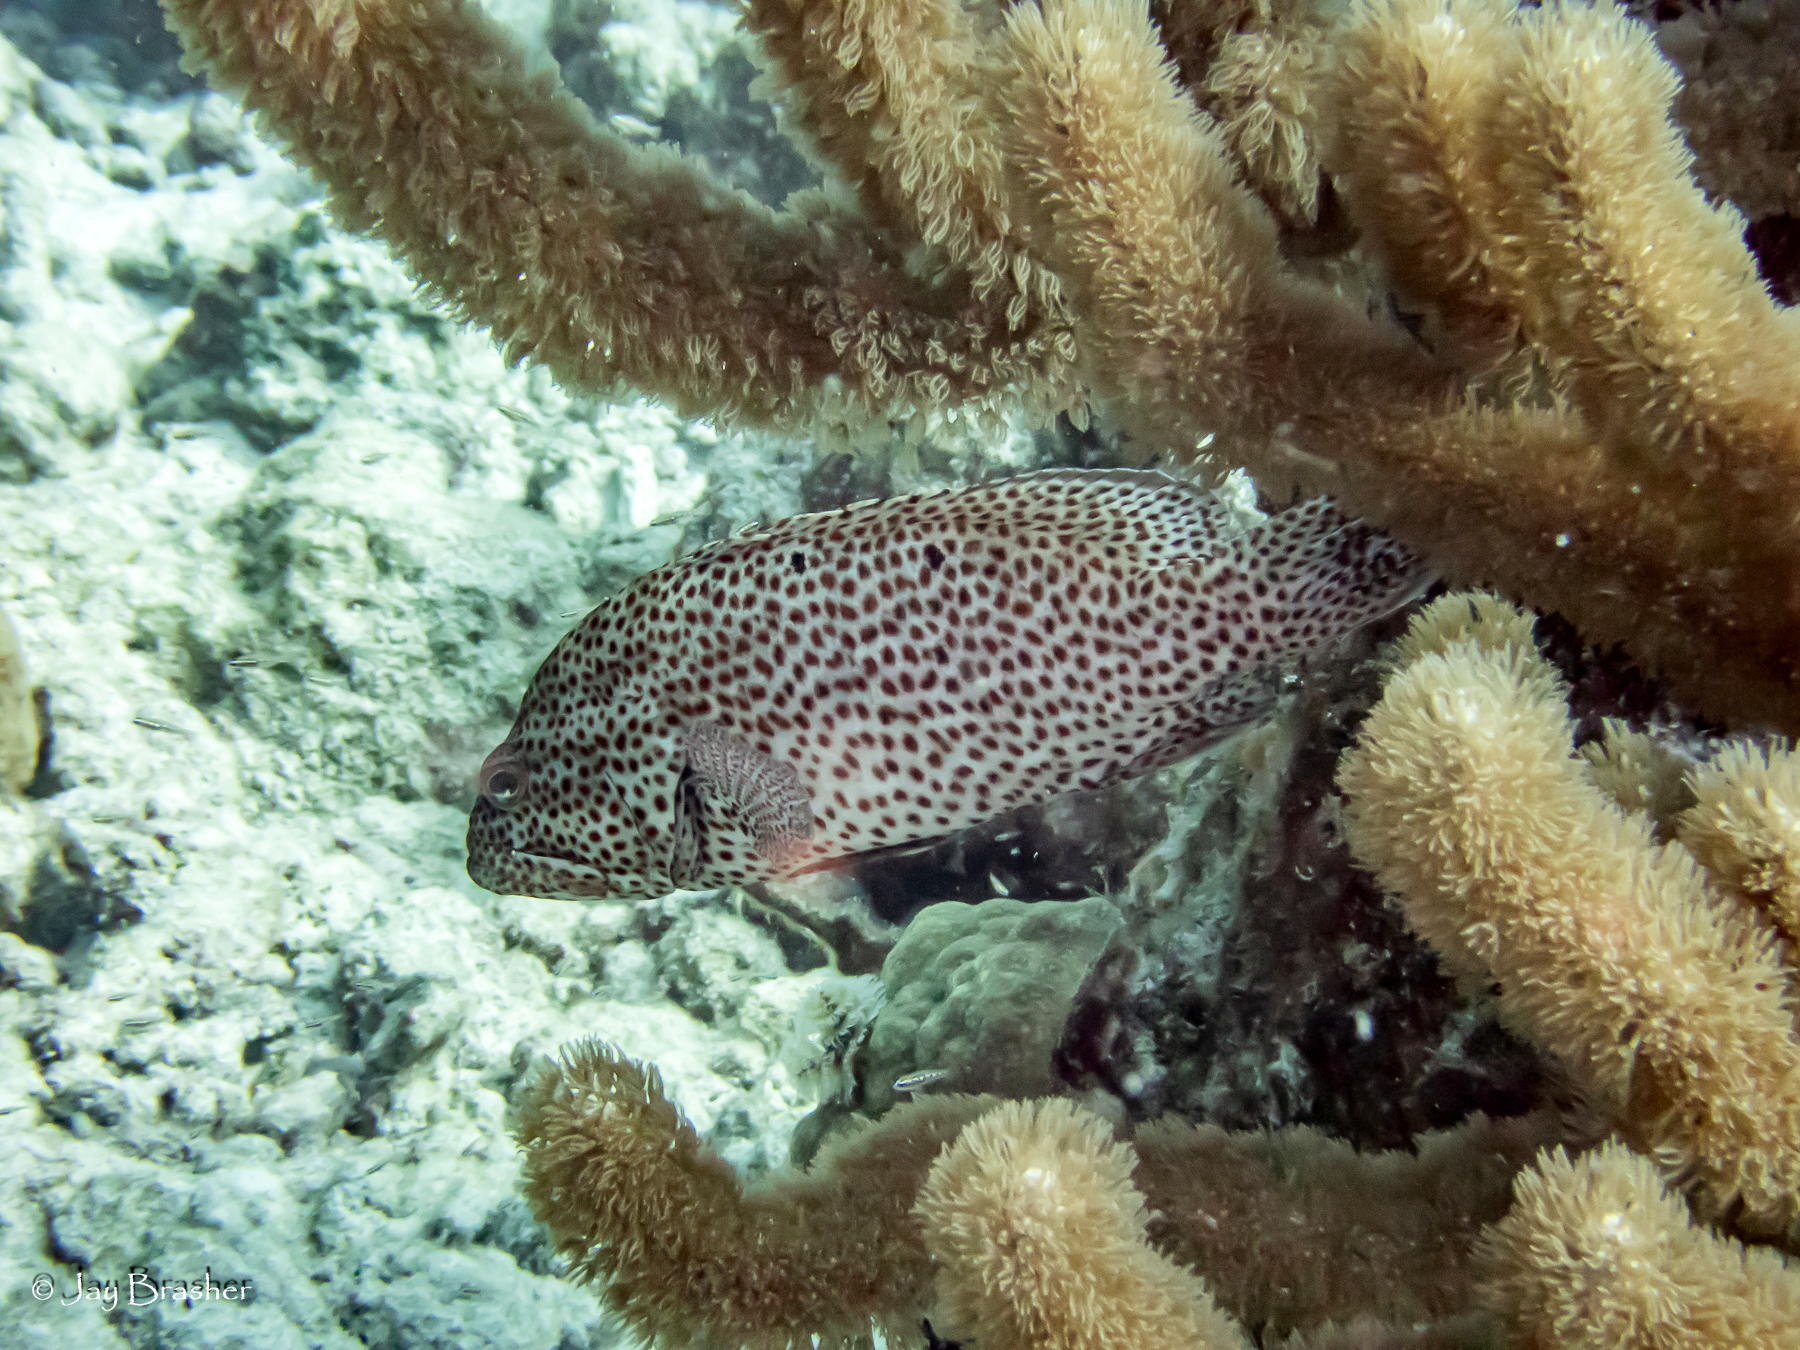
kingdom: Animalia
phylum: Chordata
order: Perciformes
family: Serranidae
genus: Cephalopholis
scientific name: Cephalopholis cruentata
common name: Graysby
